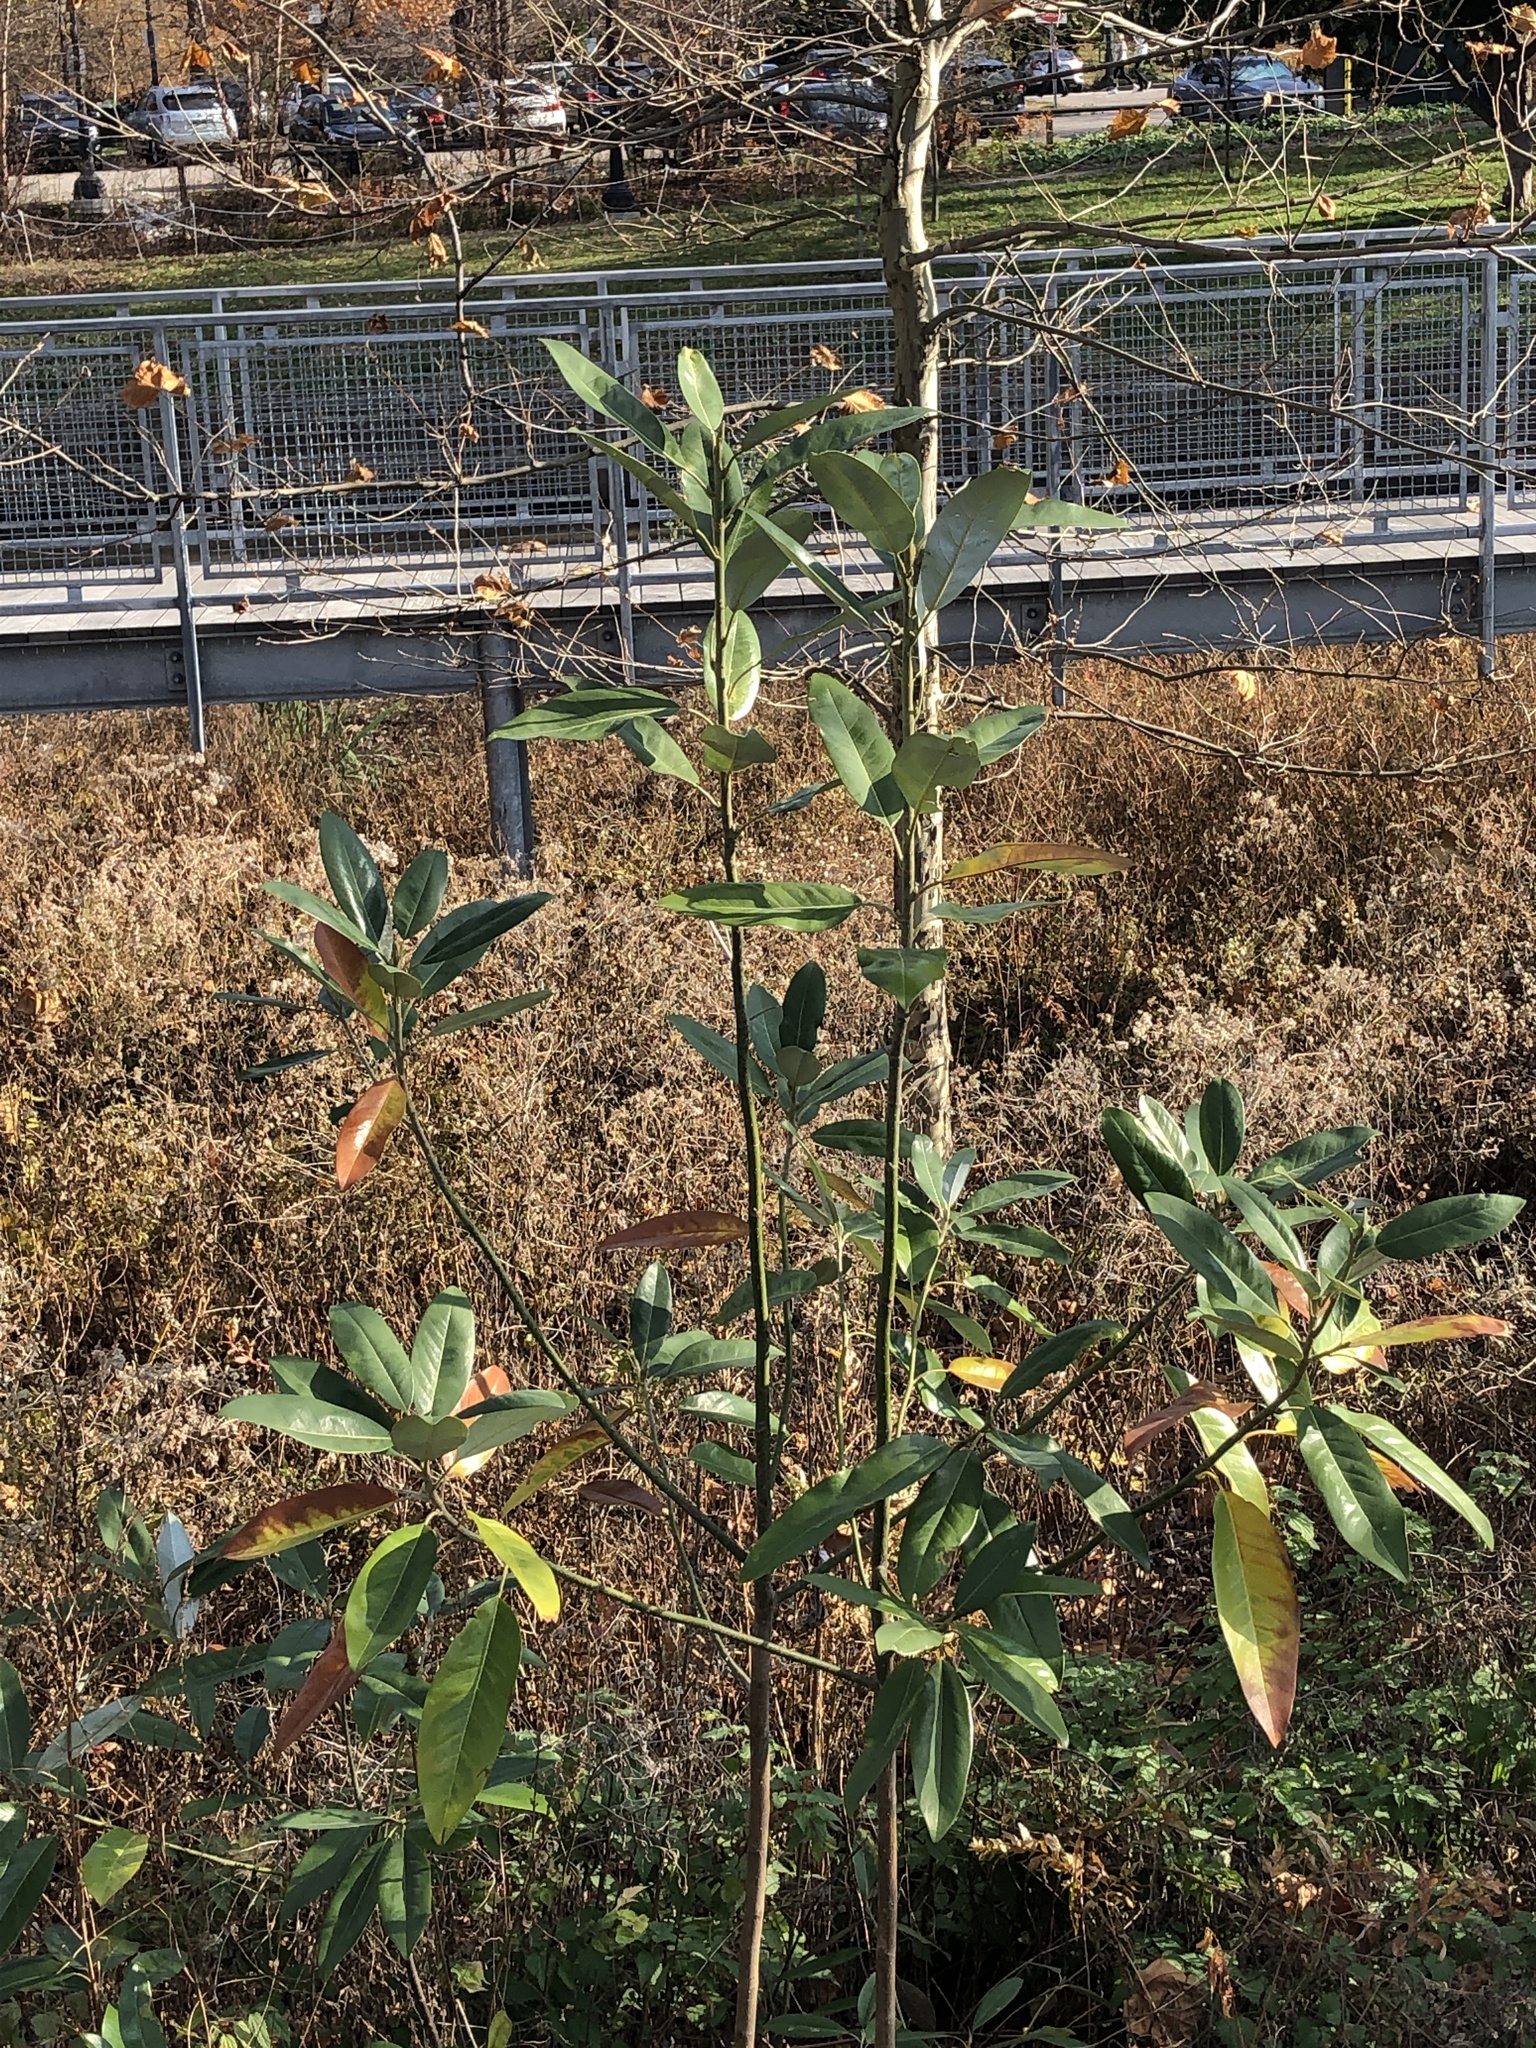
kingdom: Plantae
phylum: Tracheophyta
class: Magnoliopsida
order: Magnoliales
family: Magnoliaceae
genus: Magnolia
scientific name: Magnolia virginiana
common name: Swamp bay
